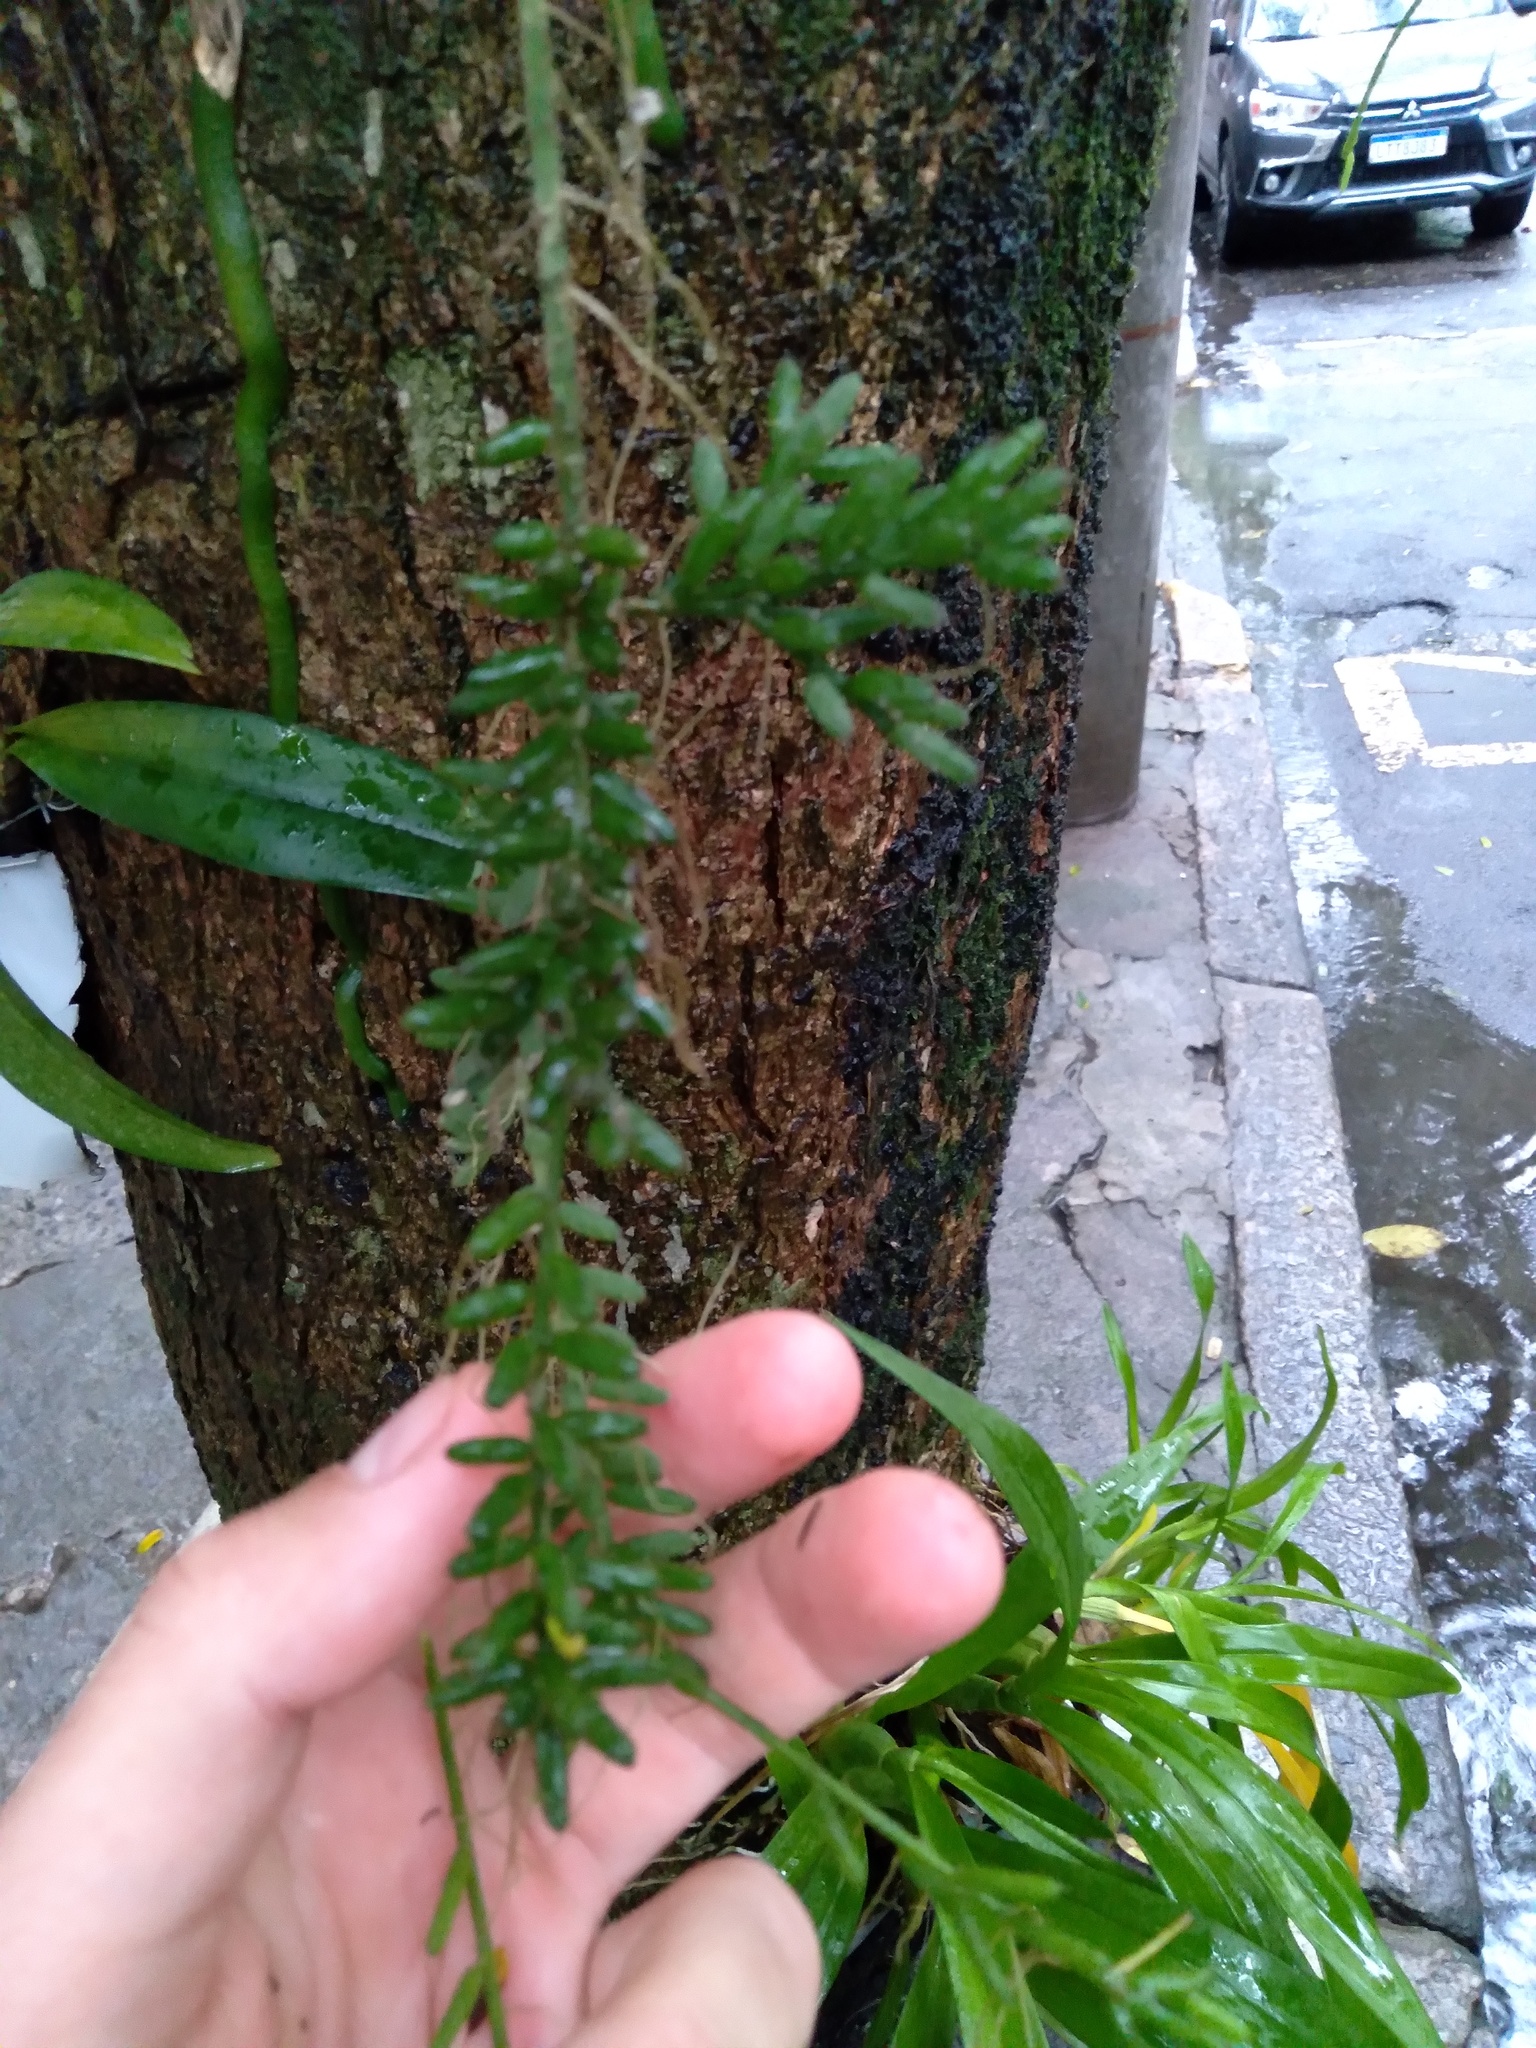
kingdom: Plantae
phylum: Tracheophyta
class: Magnoliopsida
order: Caryophyllales
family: Cactaceae
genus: Rhipsalis
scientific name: Rhipsalis mesembryanthemoides
